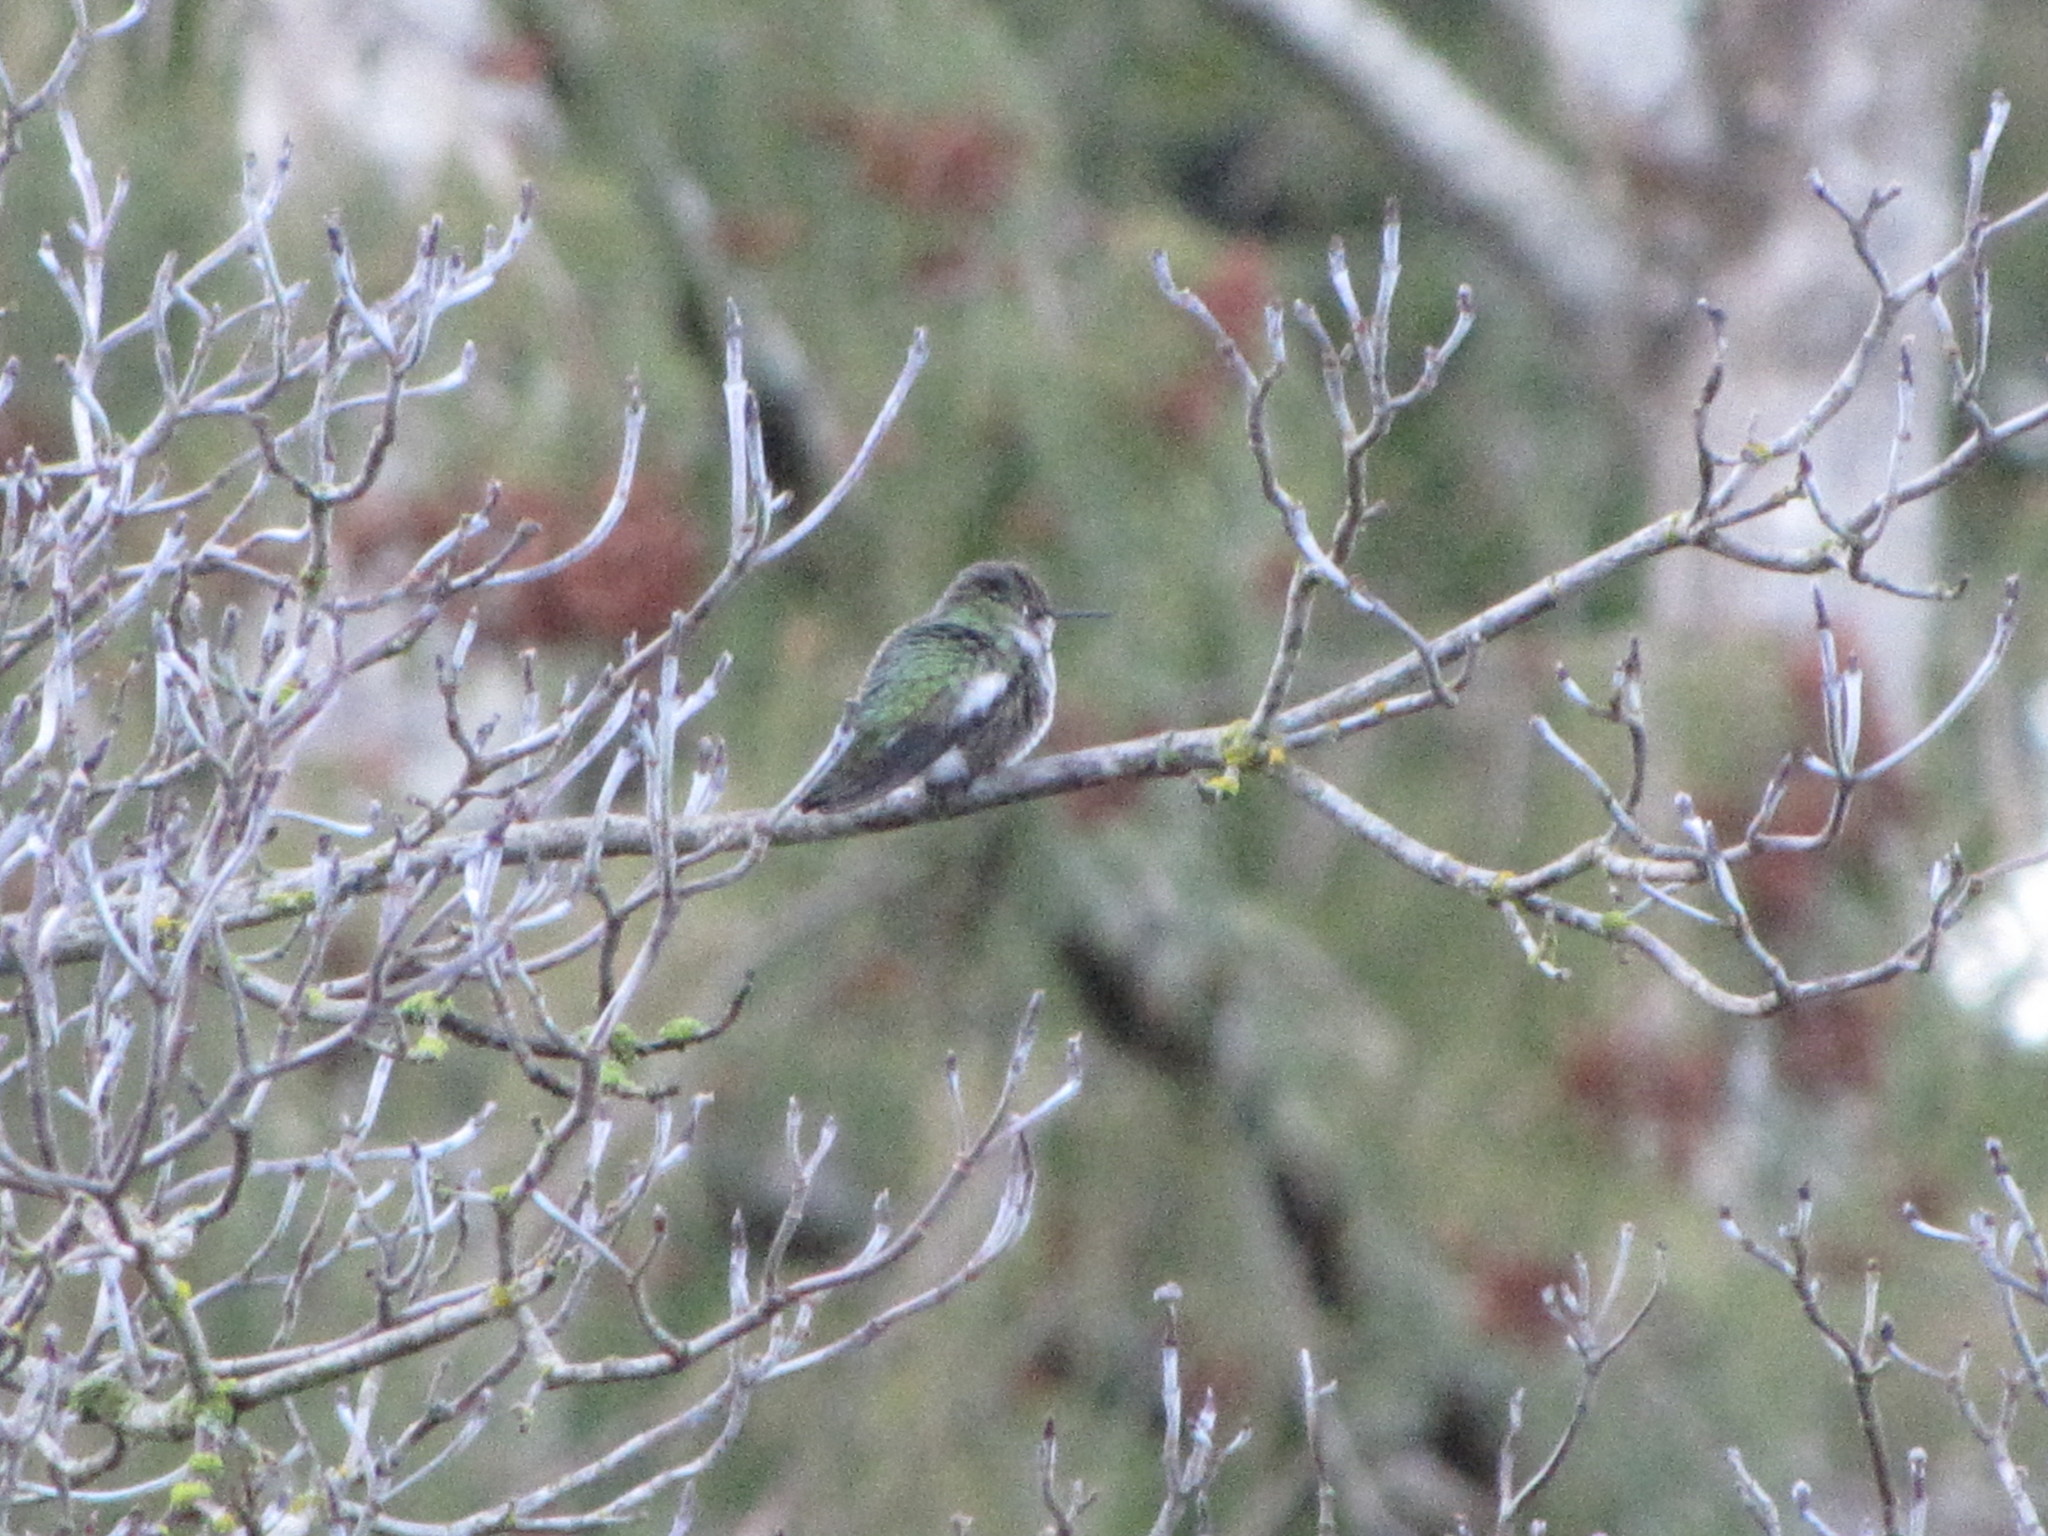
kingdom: Animalia
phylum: Chordata
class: Aves
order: Apodiformes
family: Trochilidae
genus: Calypte
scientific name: Calypte anna
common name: Anna's hummingbird
